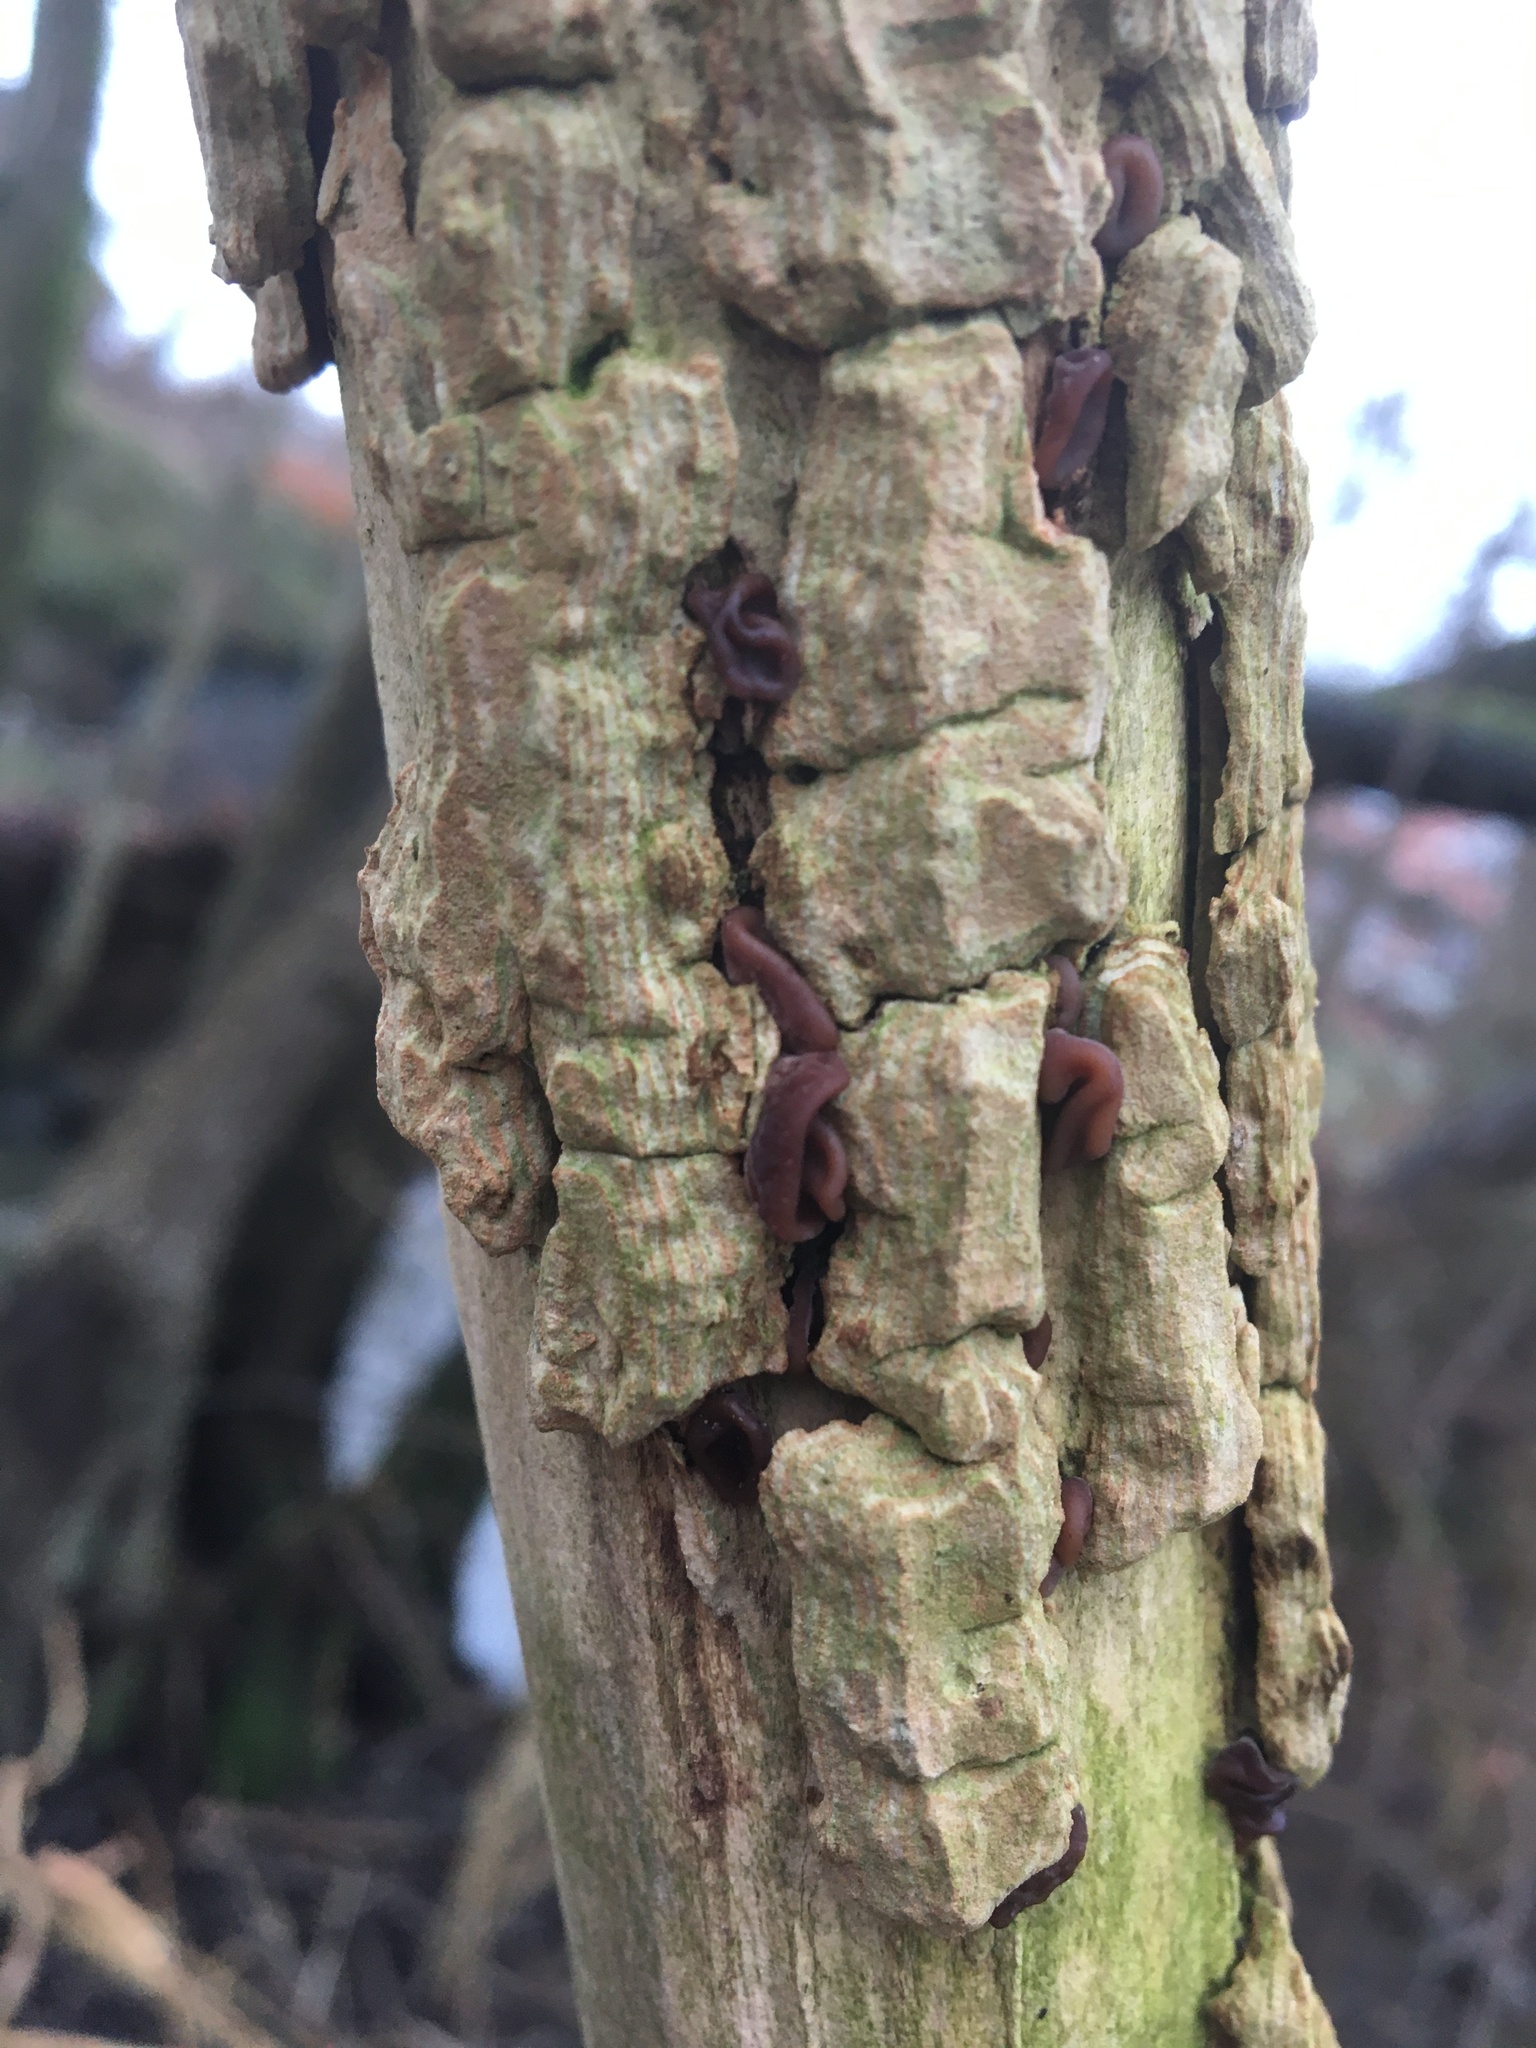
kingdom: Fungi
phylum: Basidiomycota
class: Agaricomycetes
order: Auriculariales
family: Auriculariaceae
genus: Auricularia
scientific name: Auricularia auricula-judae
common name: Jelly ear
